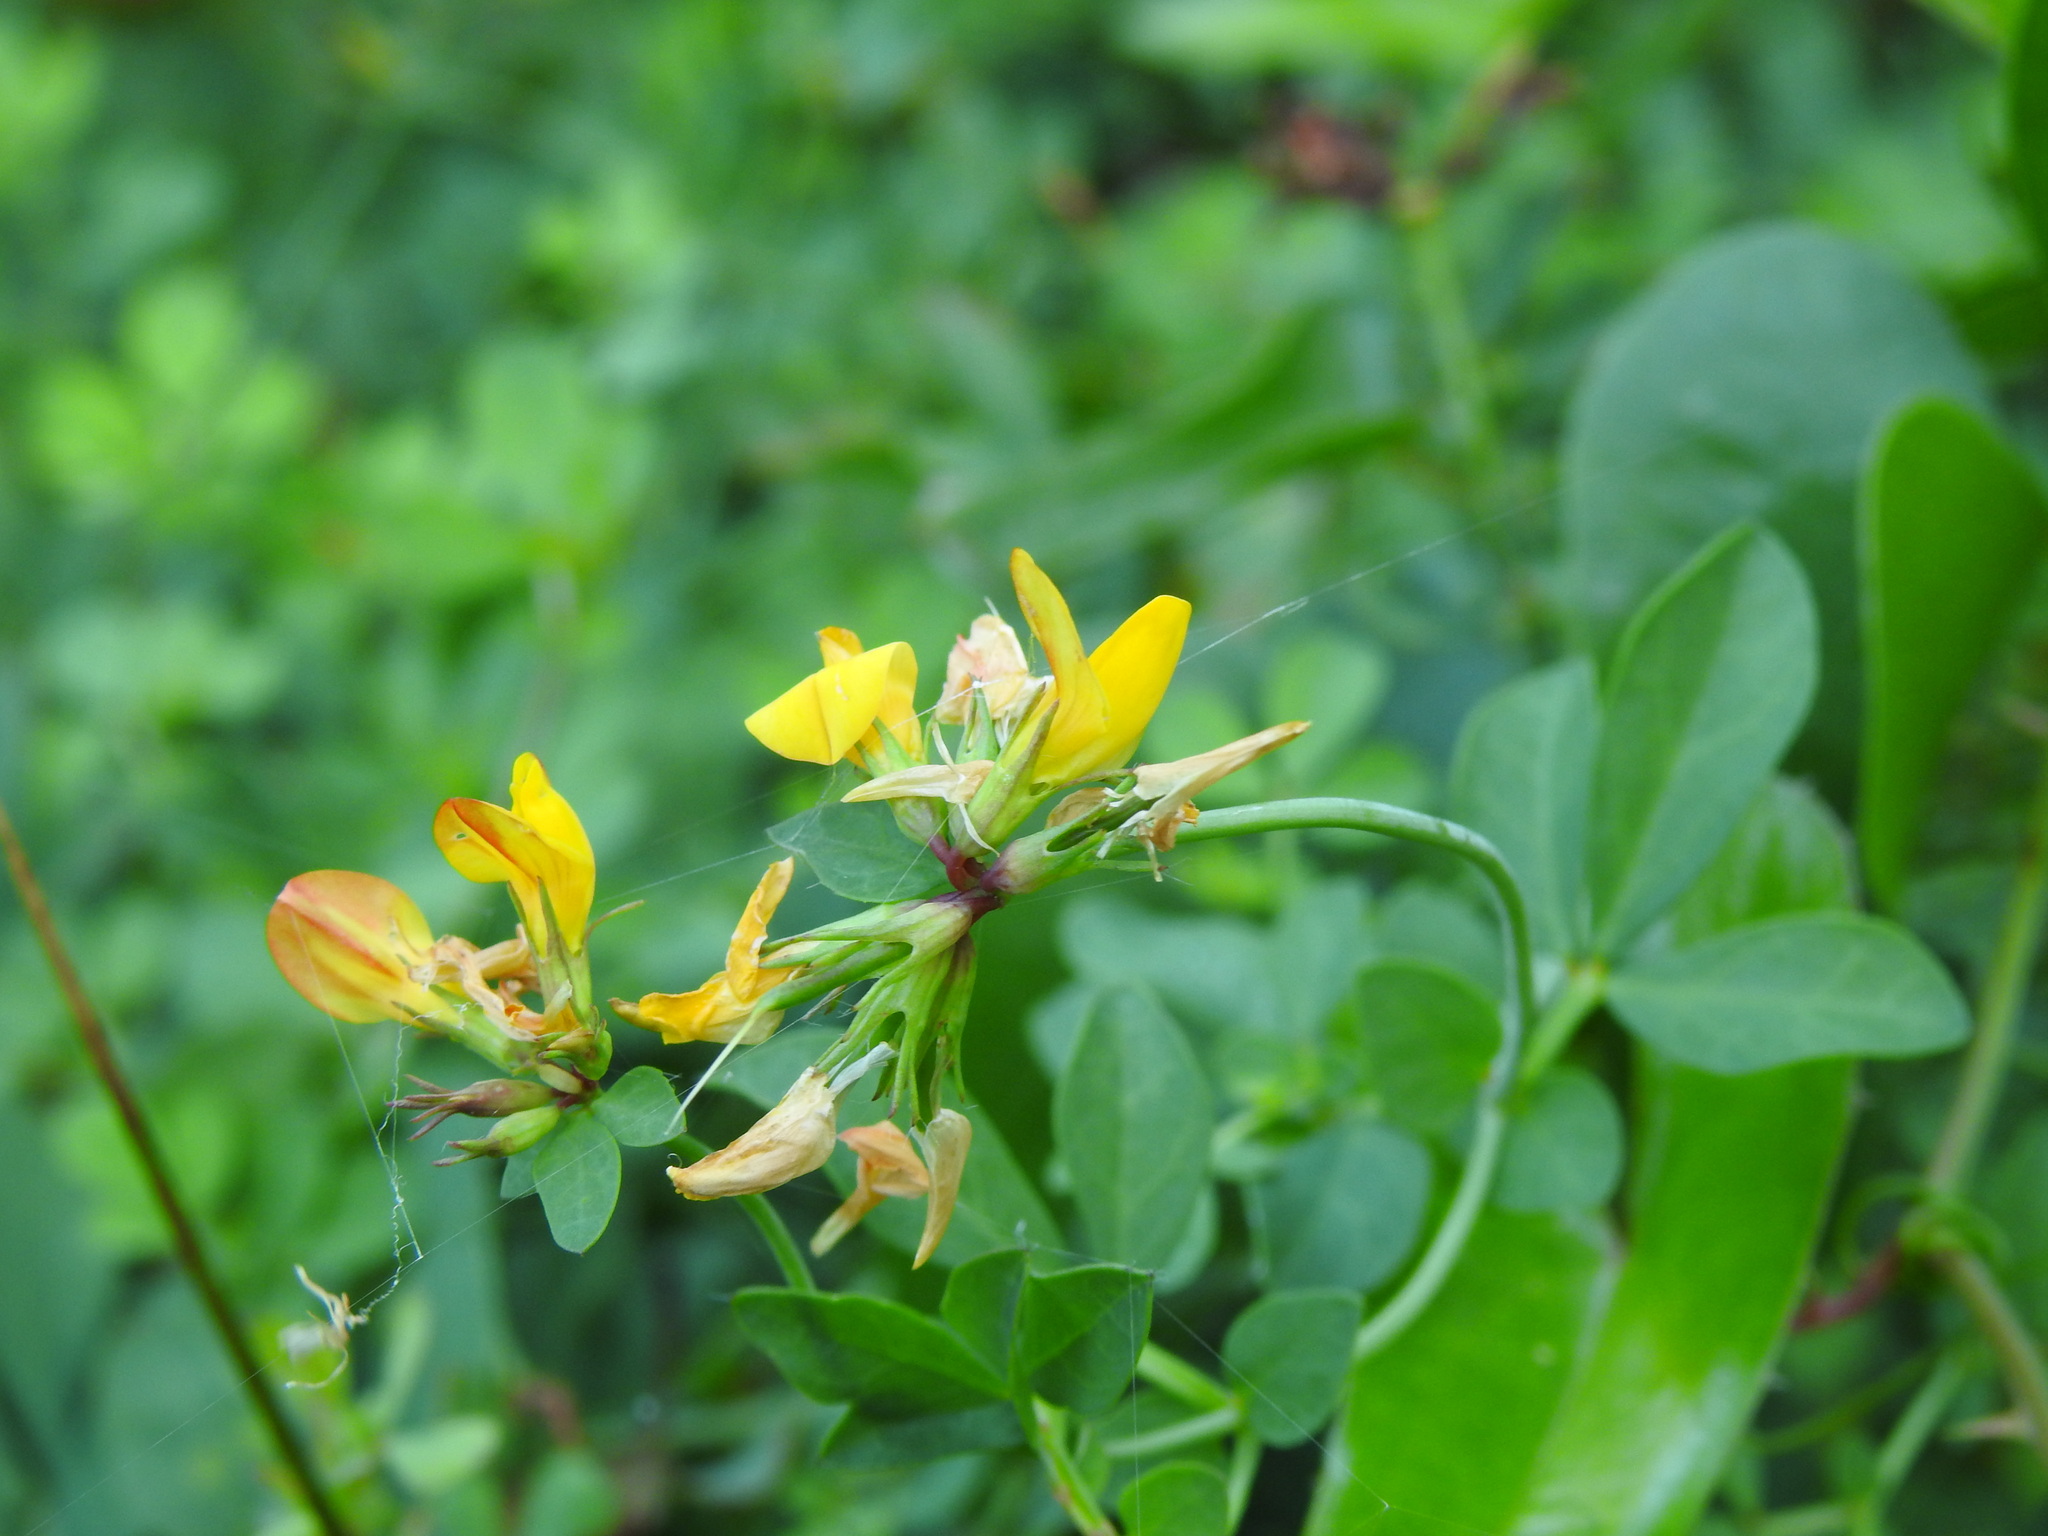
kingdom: Plantae
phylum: Tracheophyta
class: Magnoliopsida
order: Fabales
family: Fabaceae
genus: Lotus
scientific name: Lotus pedunculatus
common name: Greater birdsfoot-trefoil
